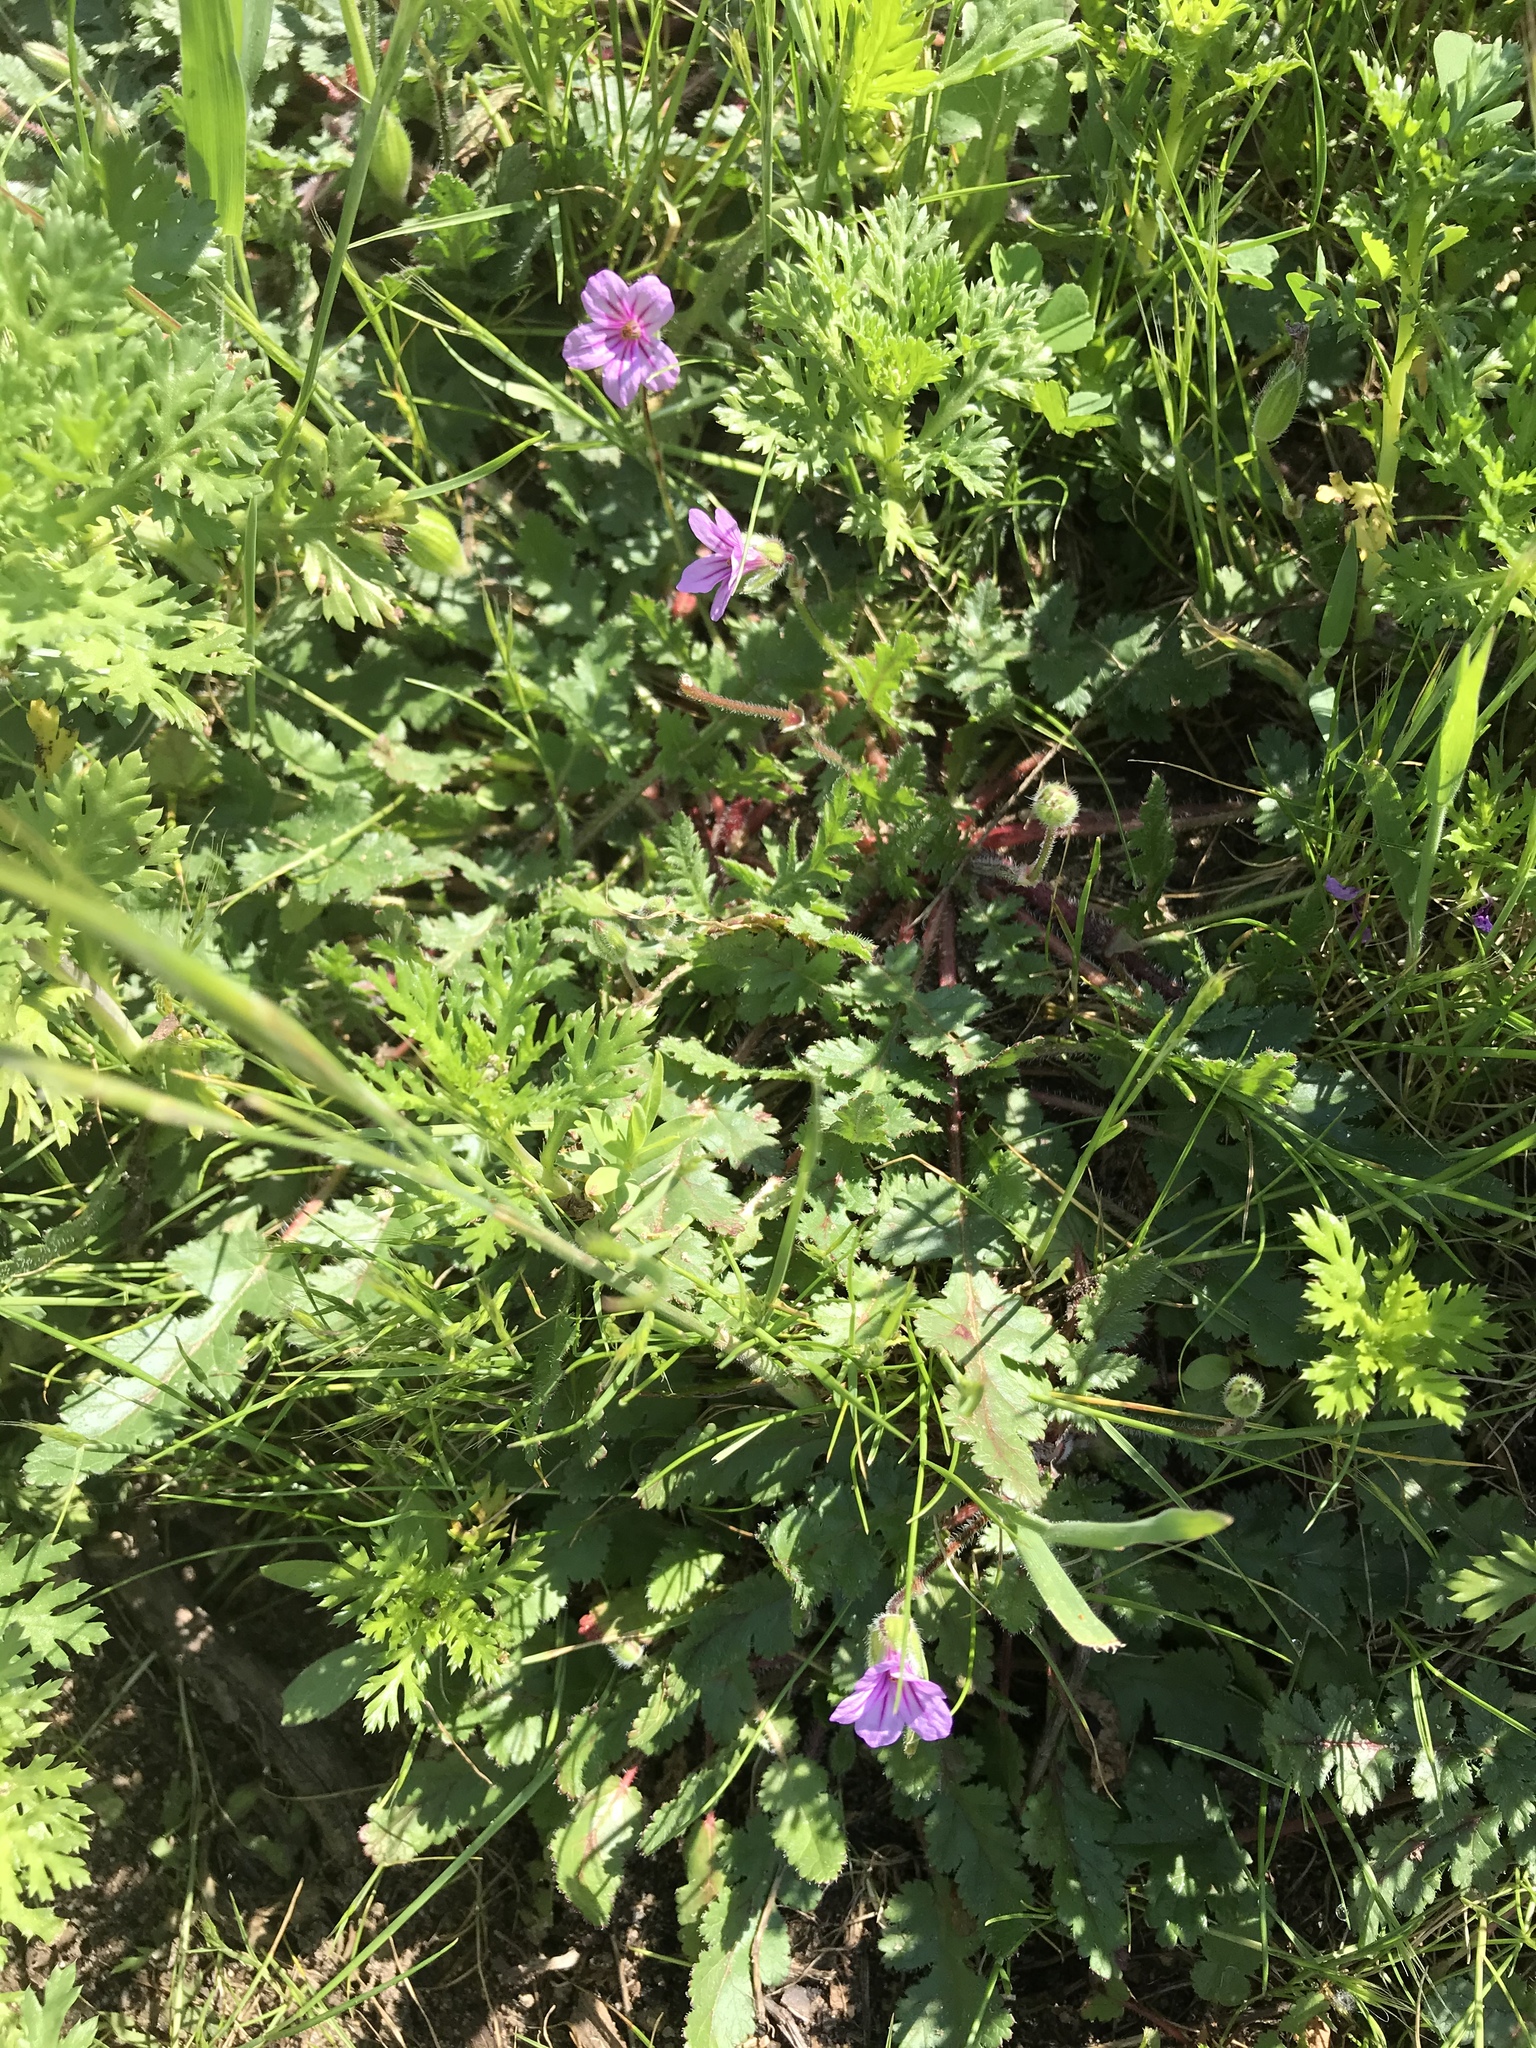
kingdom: Plantae
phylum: Tracheophyta
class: Magnoliopsida
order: Geraniales
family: Geraniaceae
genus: Erodium
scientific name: Erodium botrys
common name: Mediterranean stork's-bill
